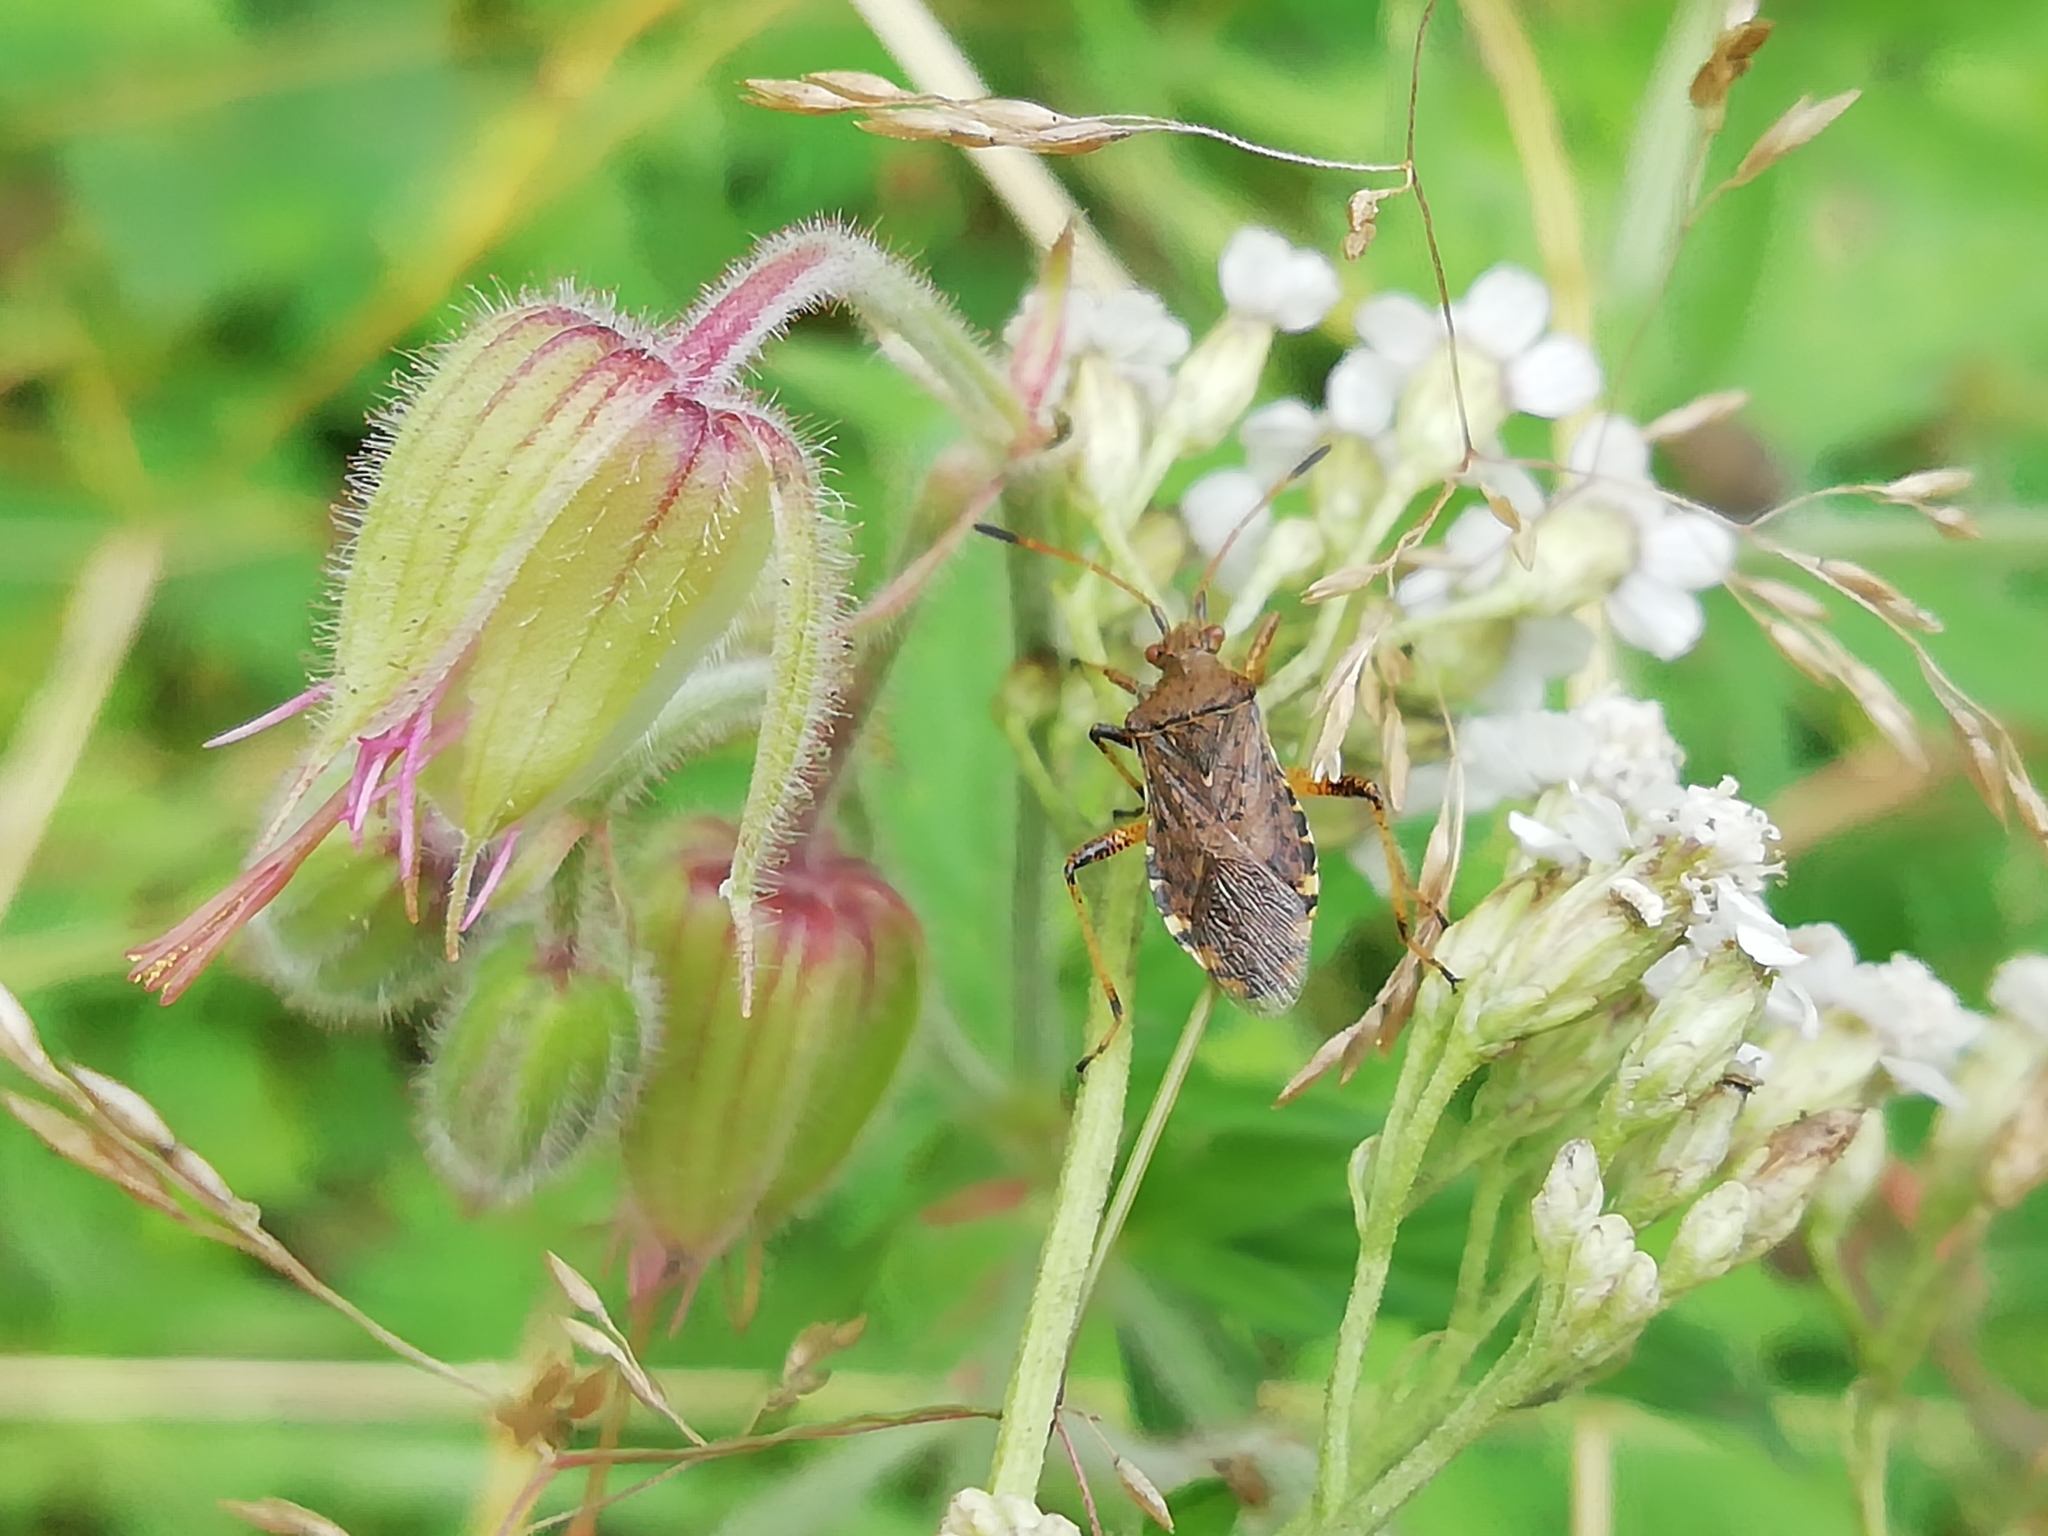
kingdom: Animalia
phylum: Arthropoda
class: Insecta
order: Hemiptera
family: Rhopalidae
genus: Rhopalus
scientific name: Rhopalus subrufus
